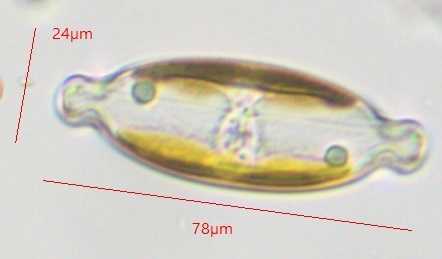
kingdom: Chromista
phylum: Ochrophyta
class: Bacillariophyceae
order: Naviculales
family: Naviculaceae
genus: Caloneis
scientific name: Caloneis amphisbaena
